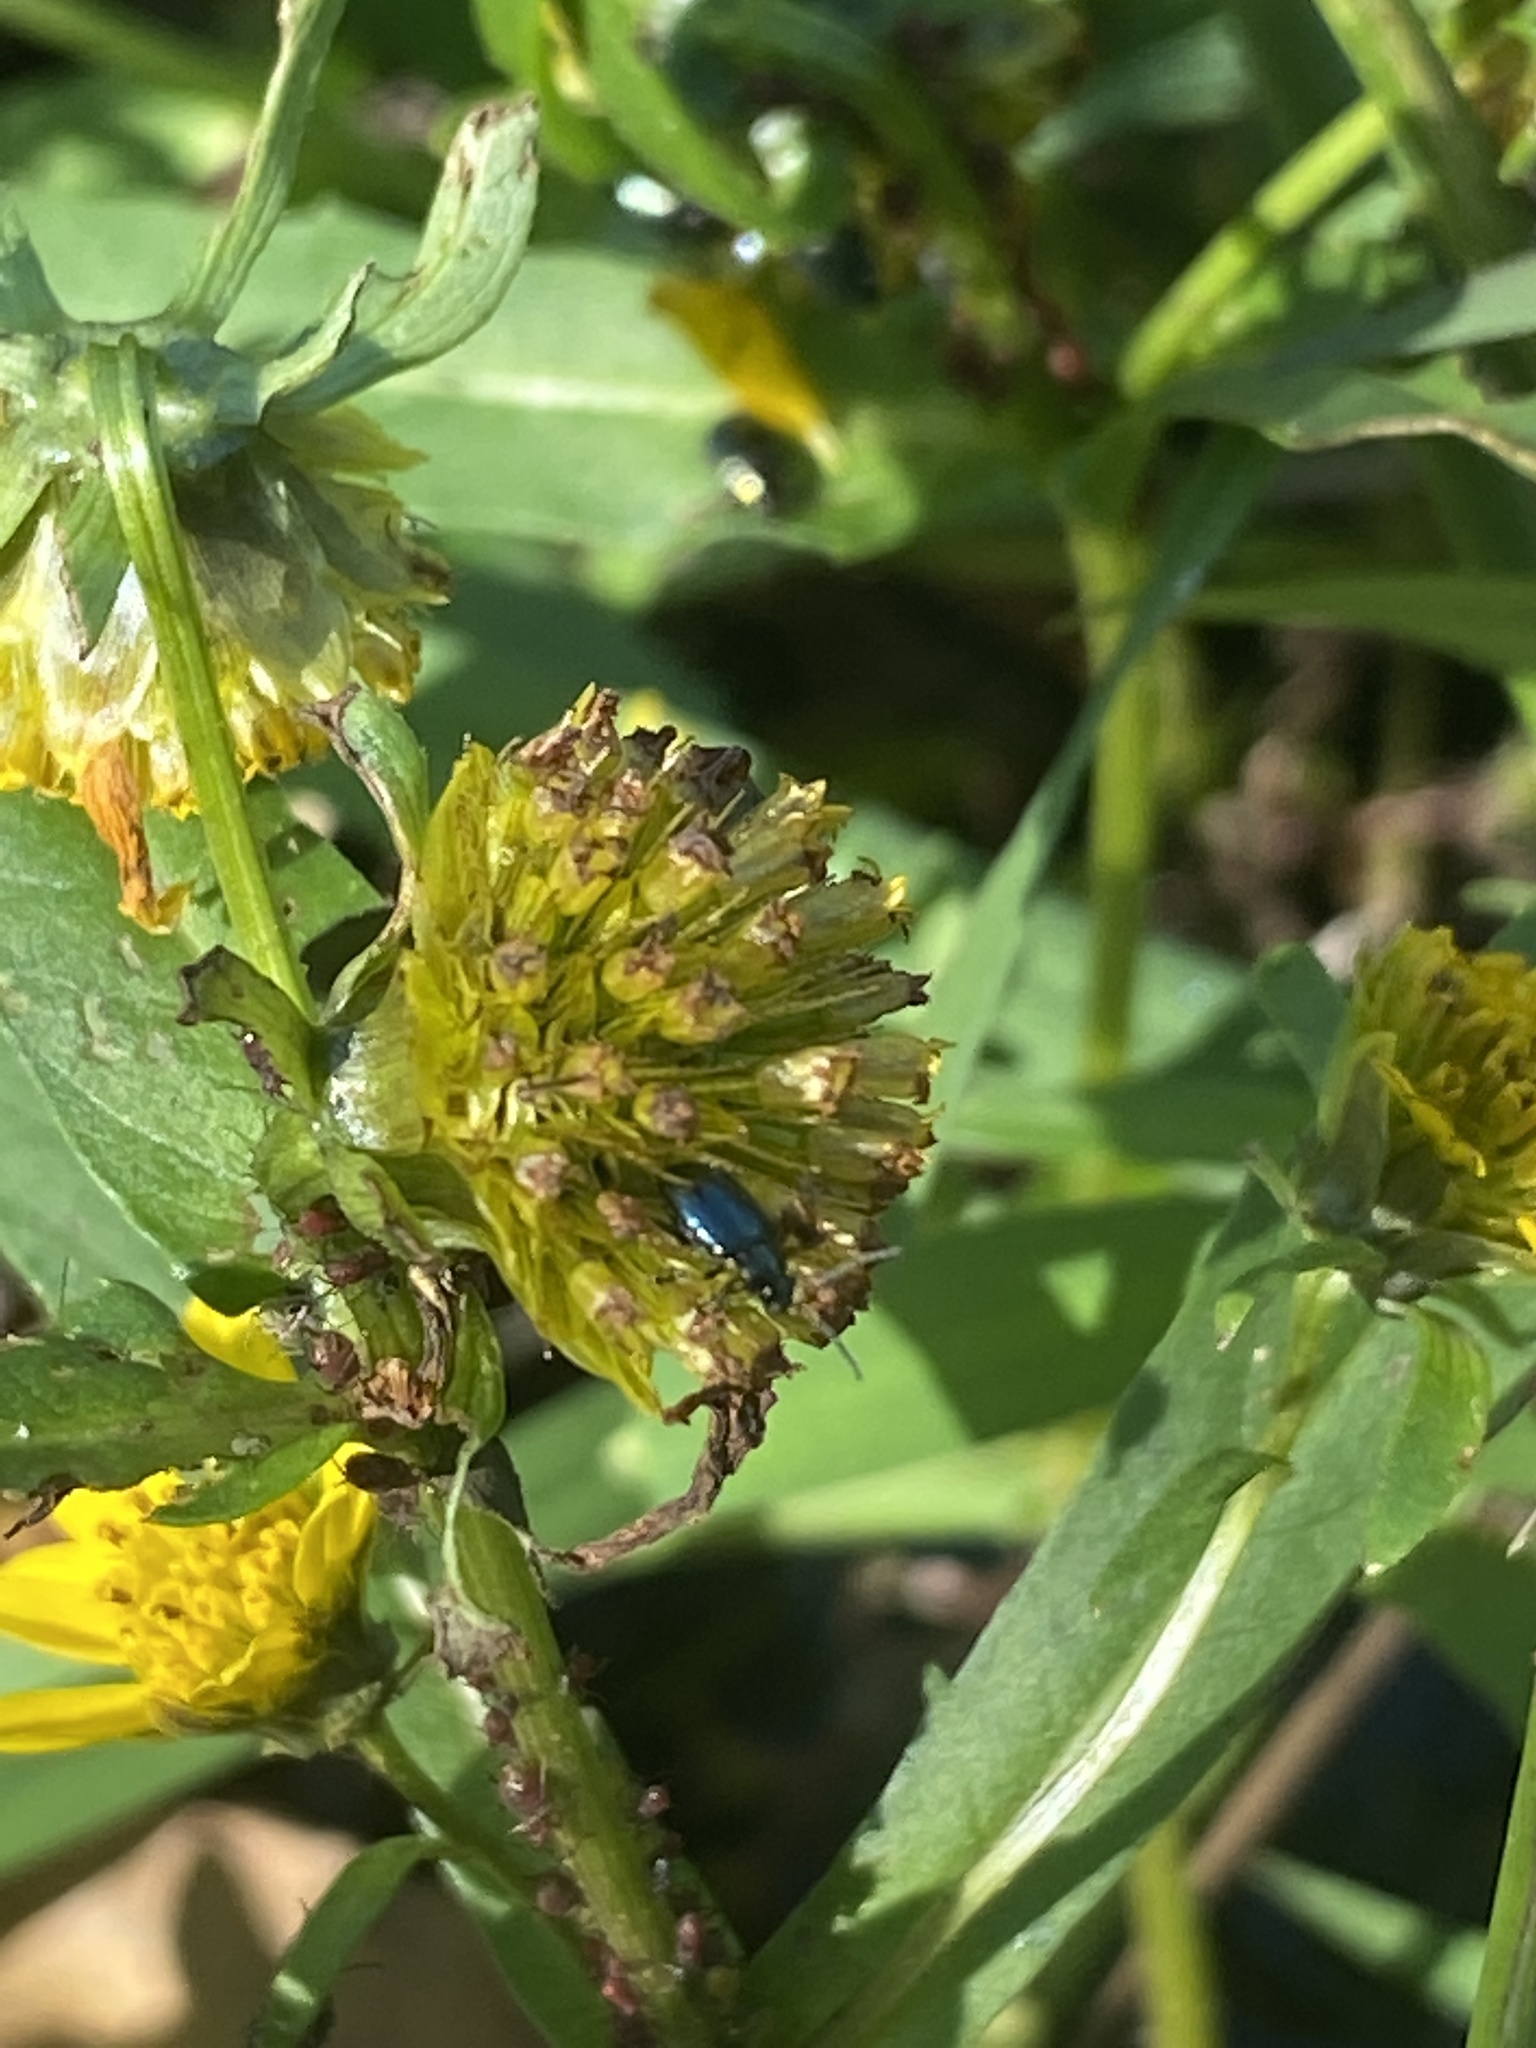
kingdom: Plantae
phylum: Tracheophyta
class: Magnoliopsida
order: Asterales
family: Asteraceae
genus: Bidens
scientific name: Bidens cernua
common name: Nodding bur-marigold
